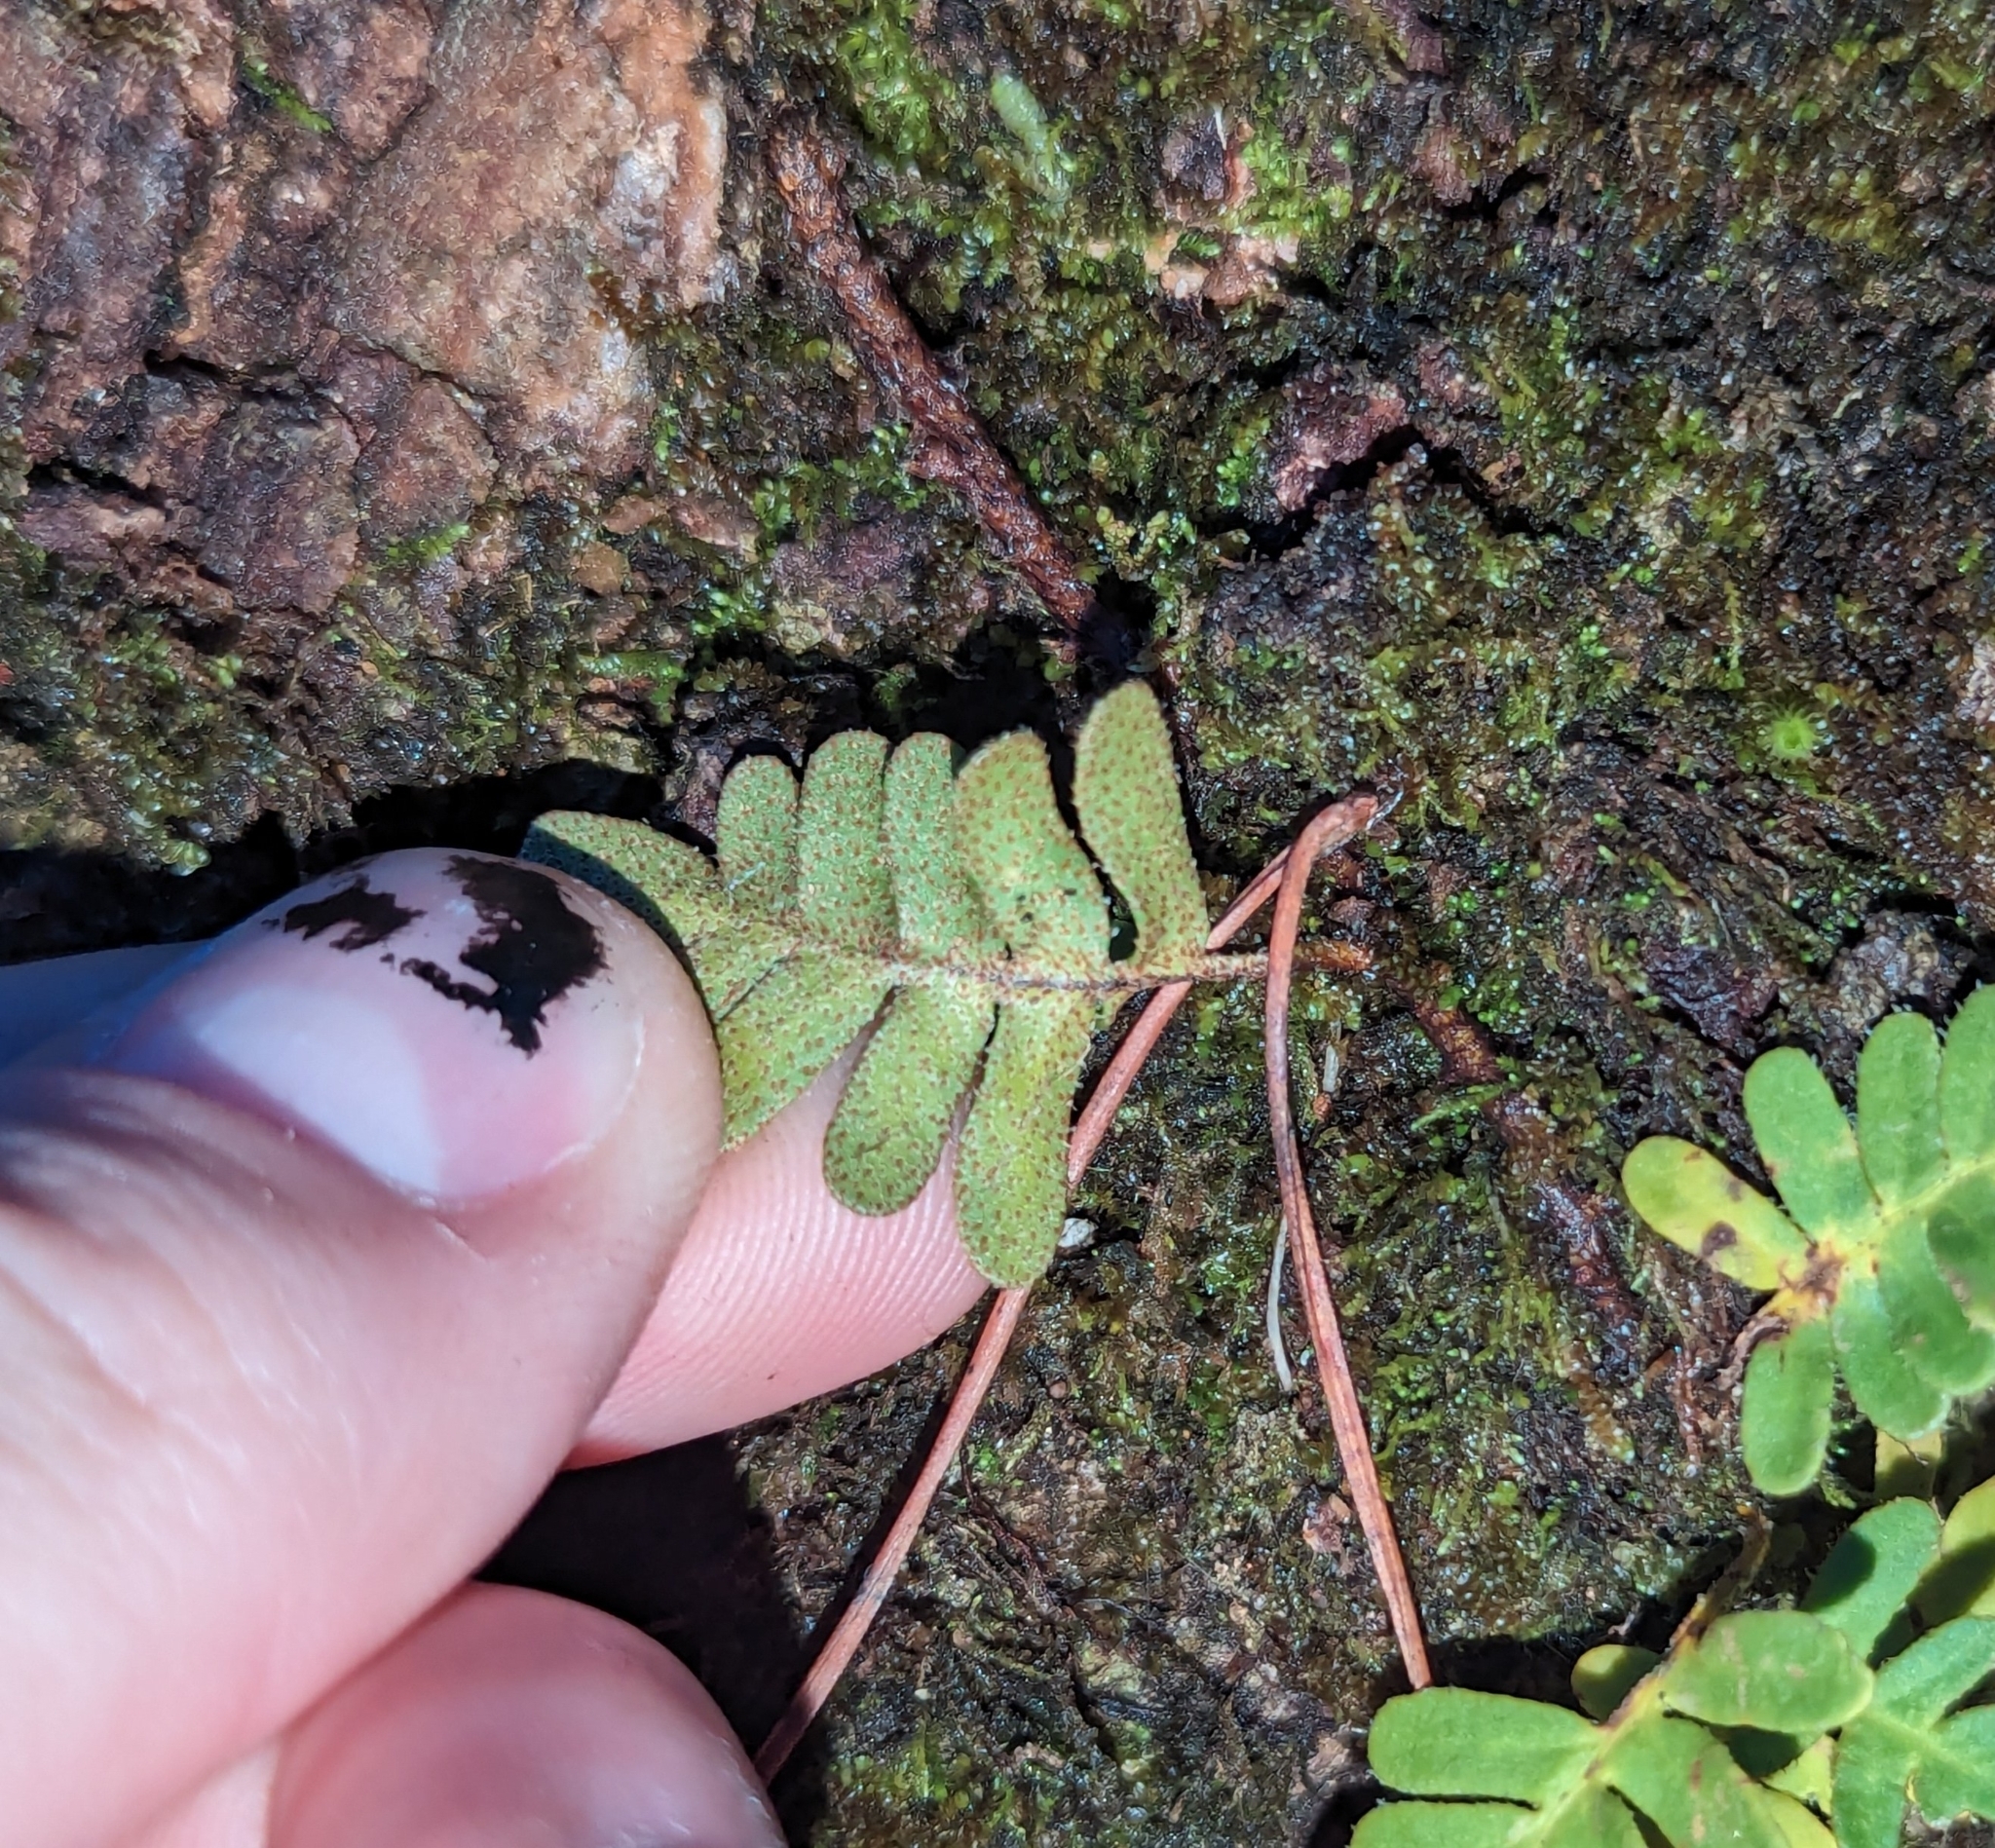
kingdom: Plantae
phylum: Tracheophyta
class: Polypodiopsida
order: Polypodiales
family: Polypodiaceae
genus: Pleopeltis
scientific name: Pleopeltis michauxiana
